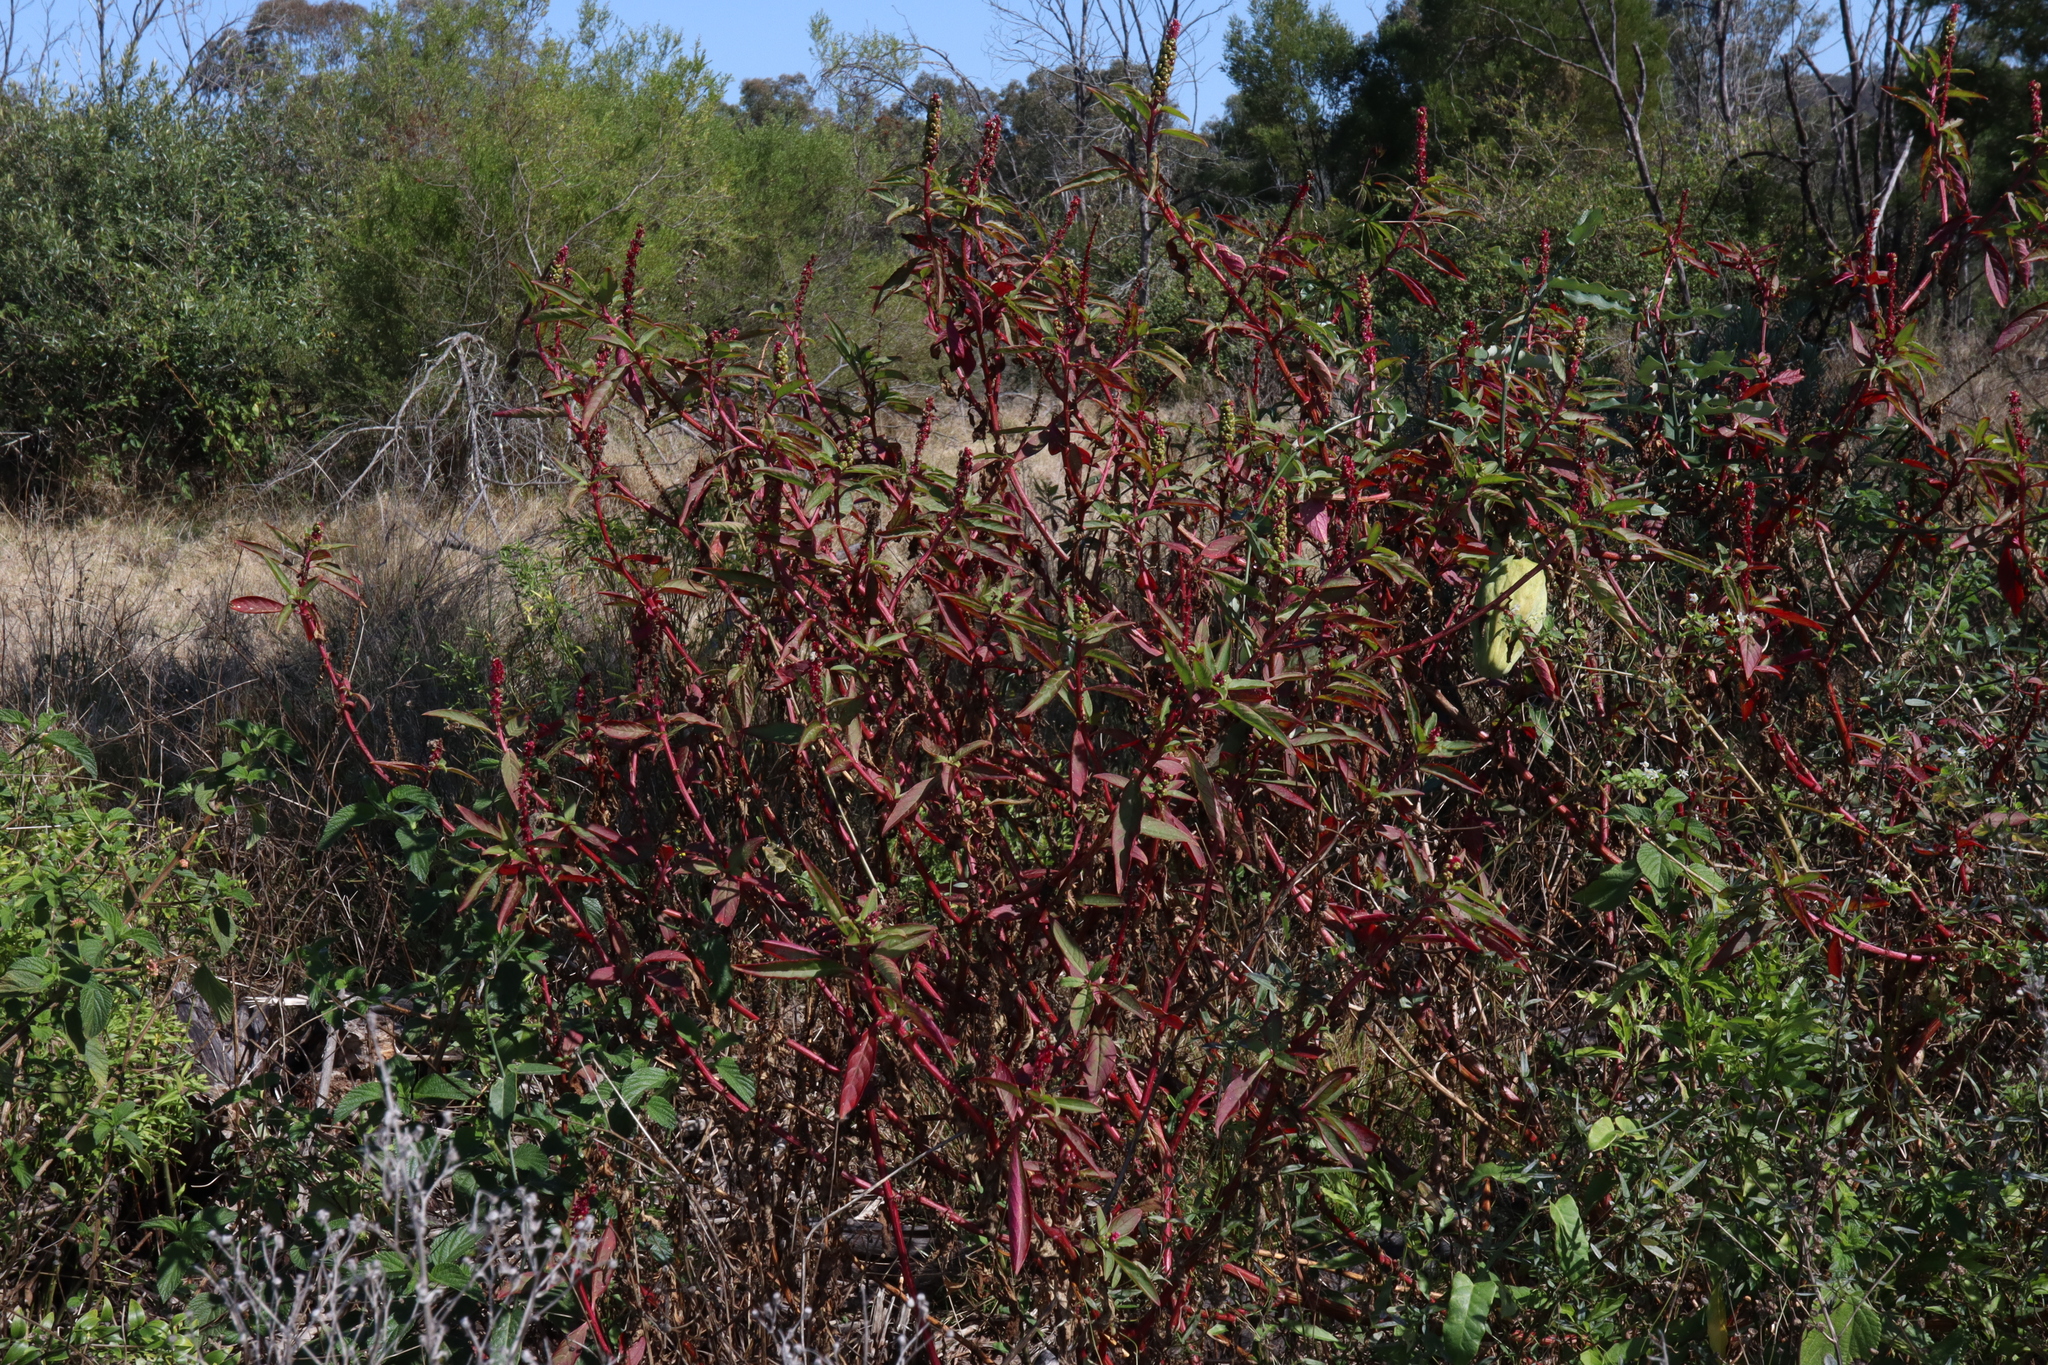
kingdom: Plantae
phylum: Tracheophyta
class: Magnoliopsida
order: Caryophyllales
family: Phytolaccaceae
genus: Phytolacca
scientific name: Phytolacca icosandra
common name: Button pokeweed
